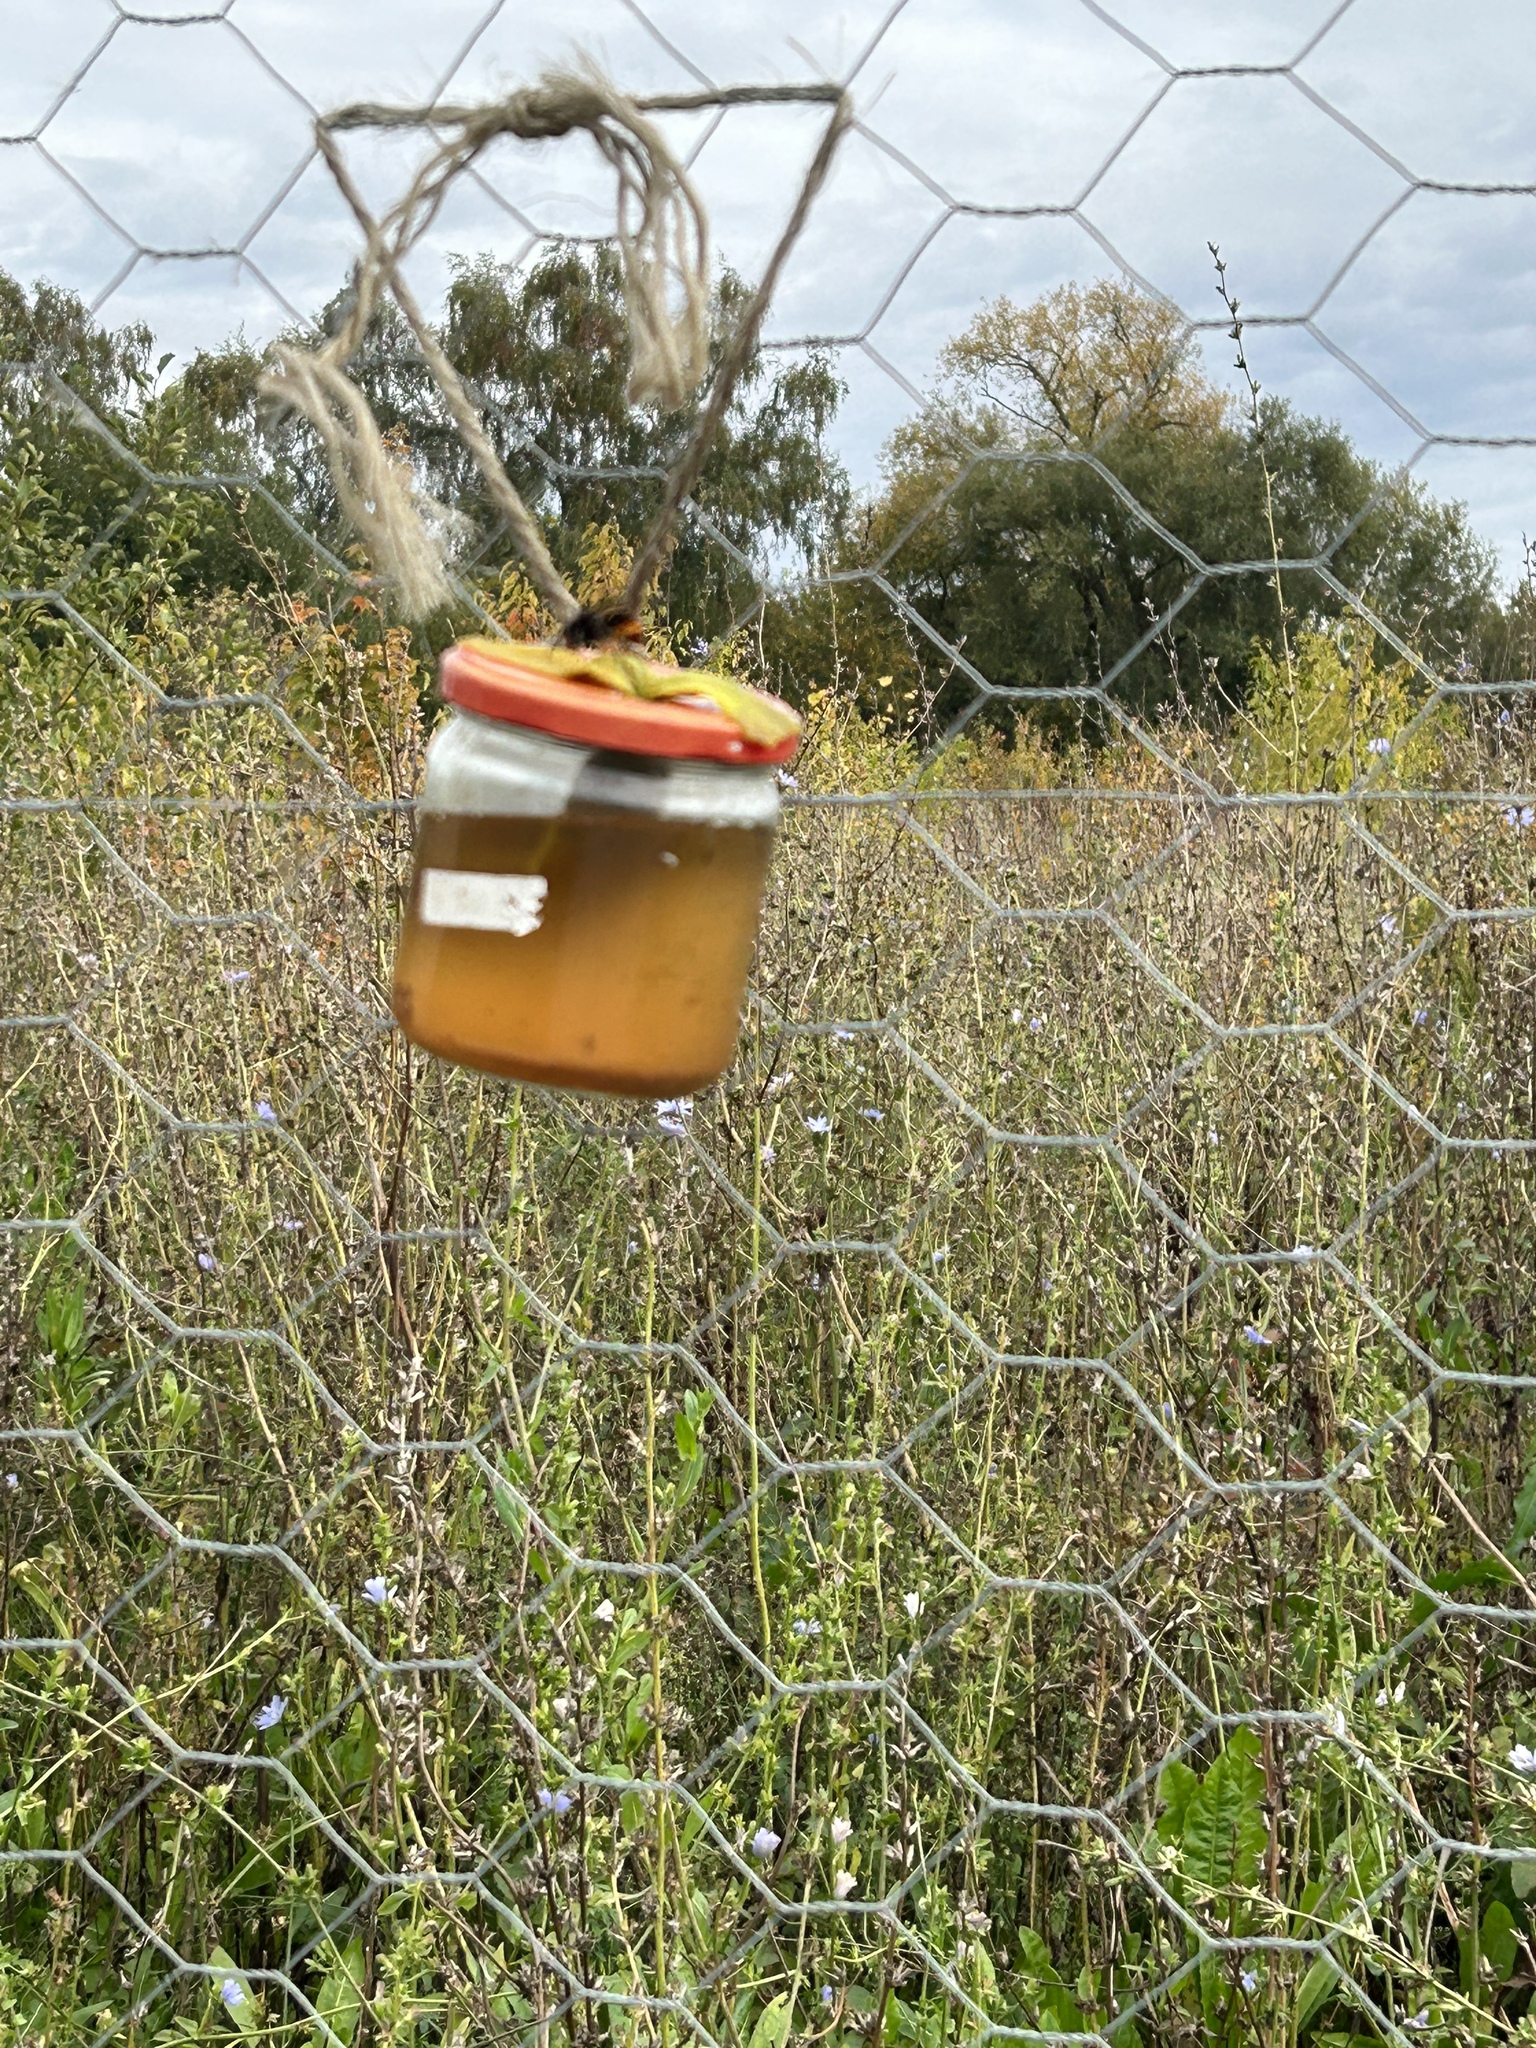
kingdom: Animalia
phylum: Arthropoda
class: Insecta
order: Hymenoptera
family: Vespidae
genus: Vespa
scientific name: Vespa velutina
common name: Asian hornet
